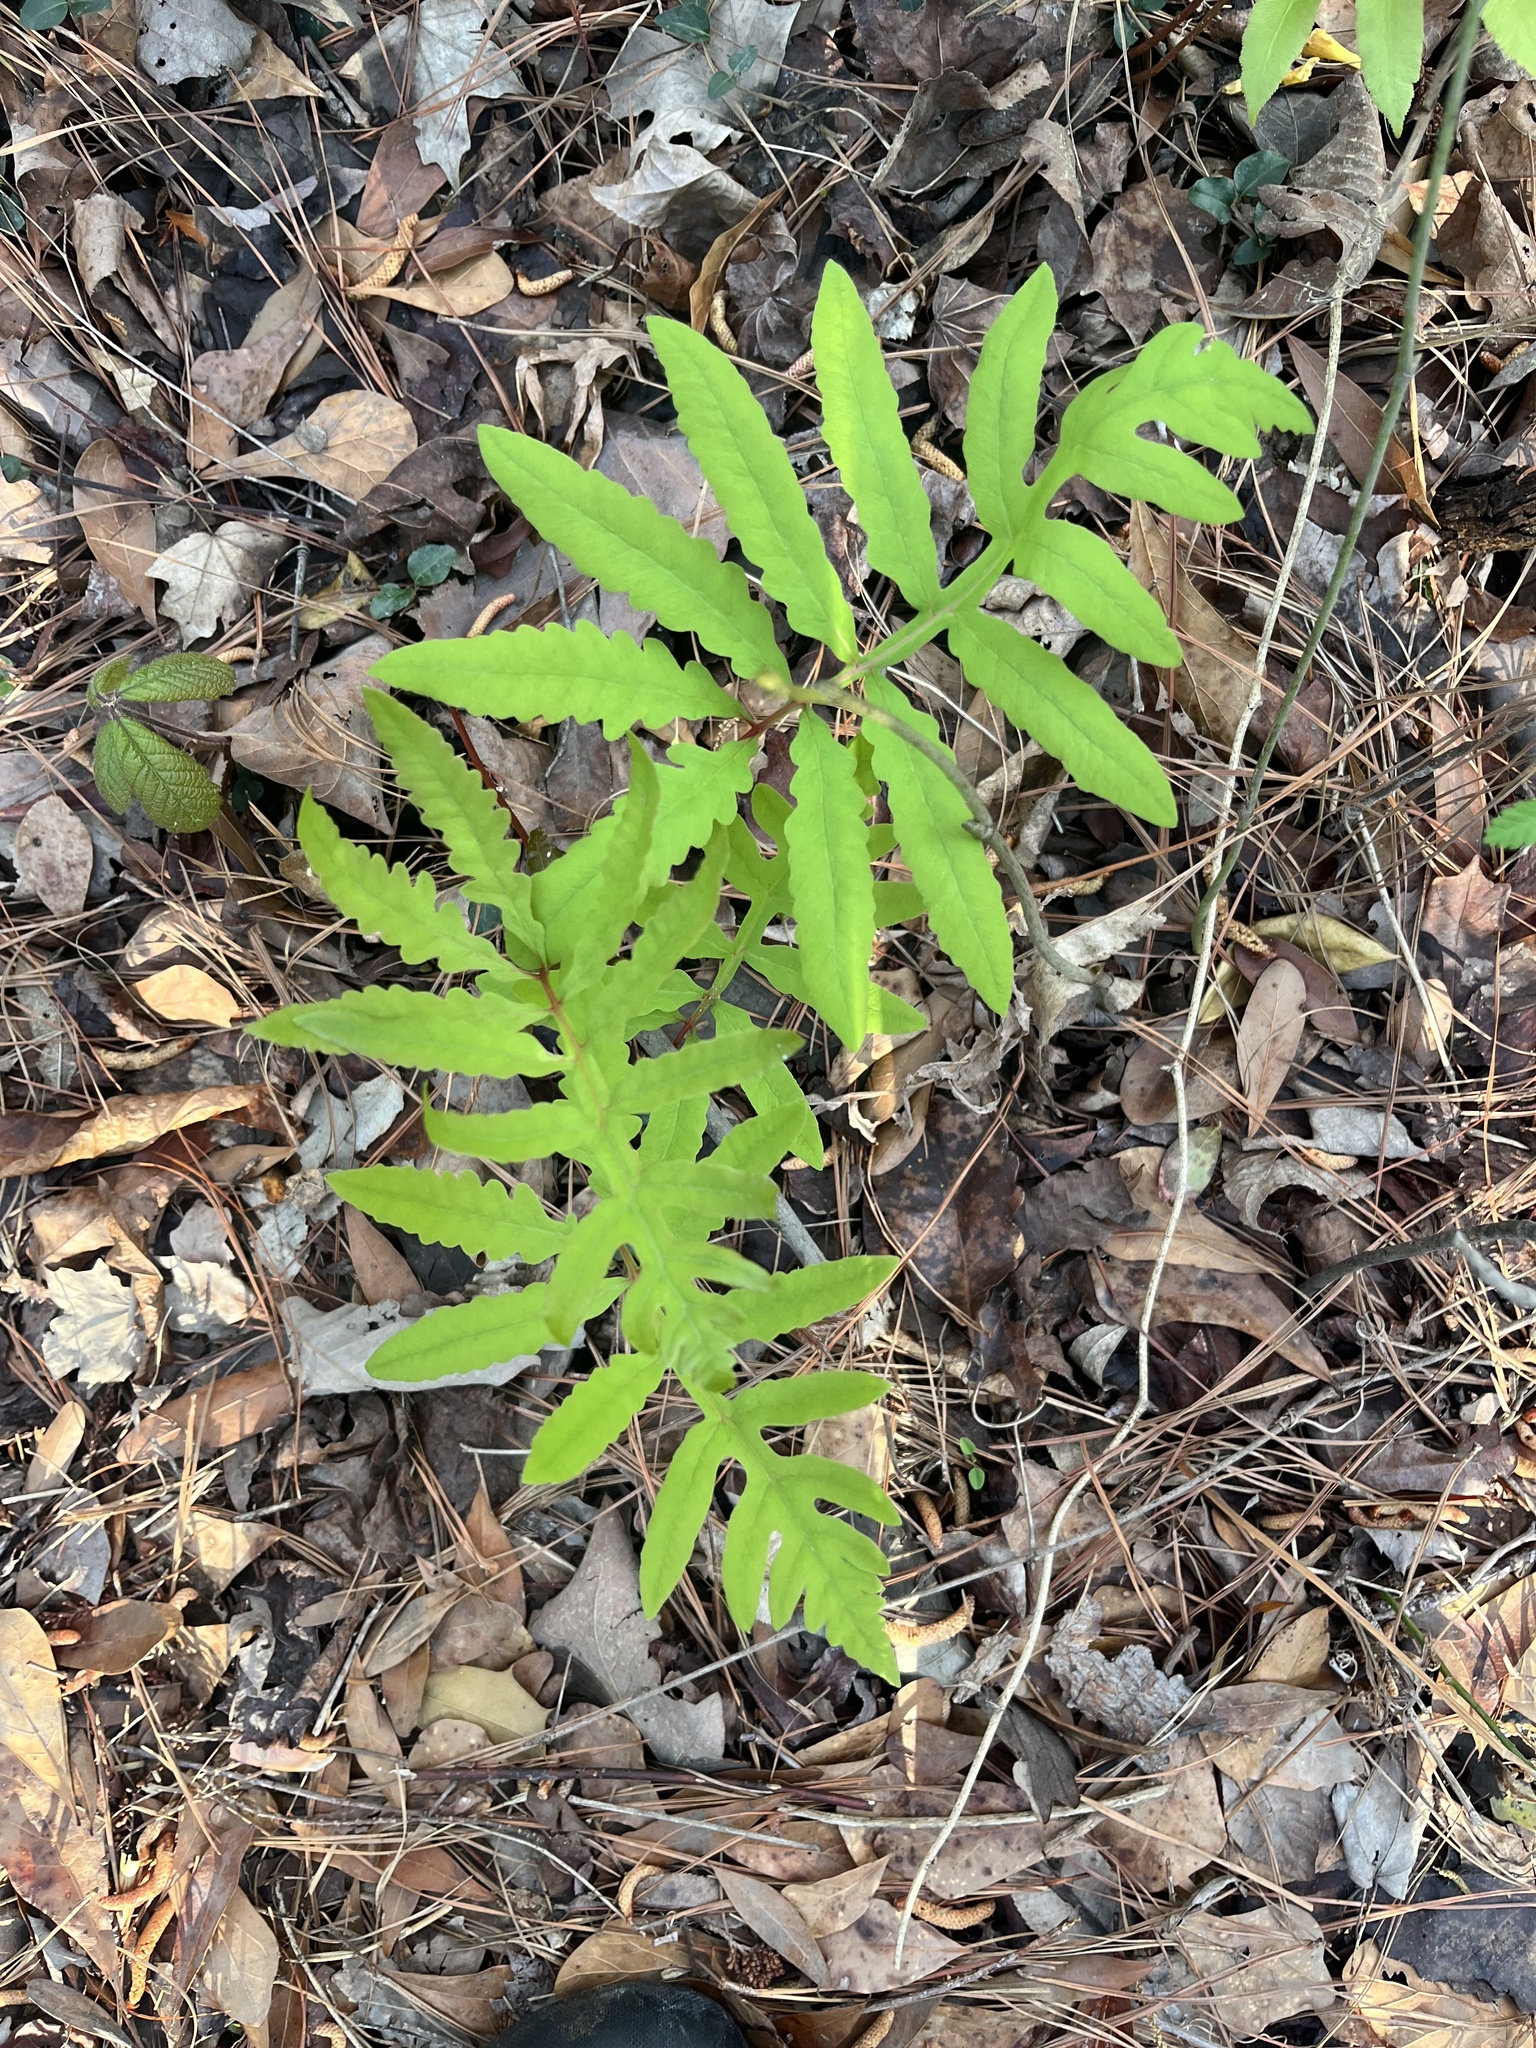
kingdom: Plantae
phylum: Tracheophyta
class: Polypodiopsida
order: Polypodiales
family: Onocleaceae
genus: Onoclea
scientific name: Onoclea sensibilis
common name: Sensitive fern
